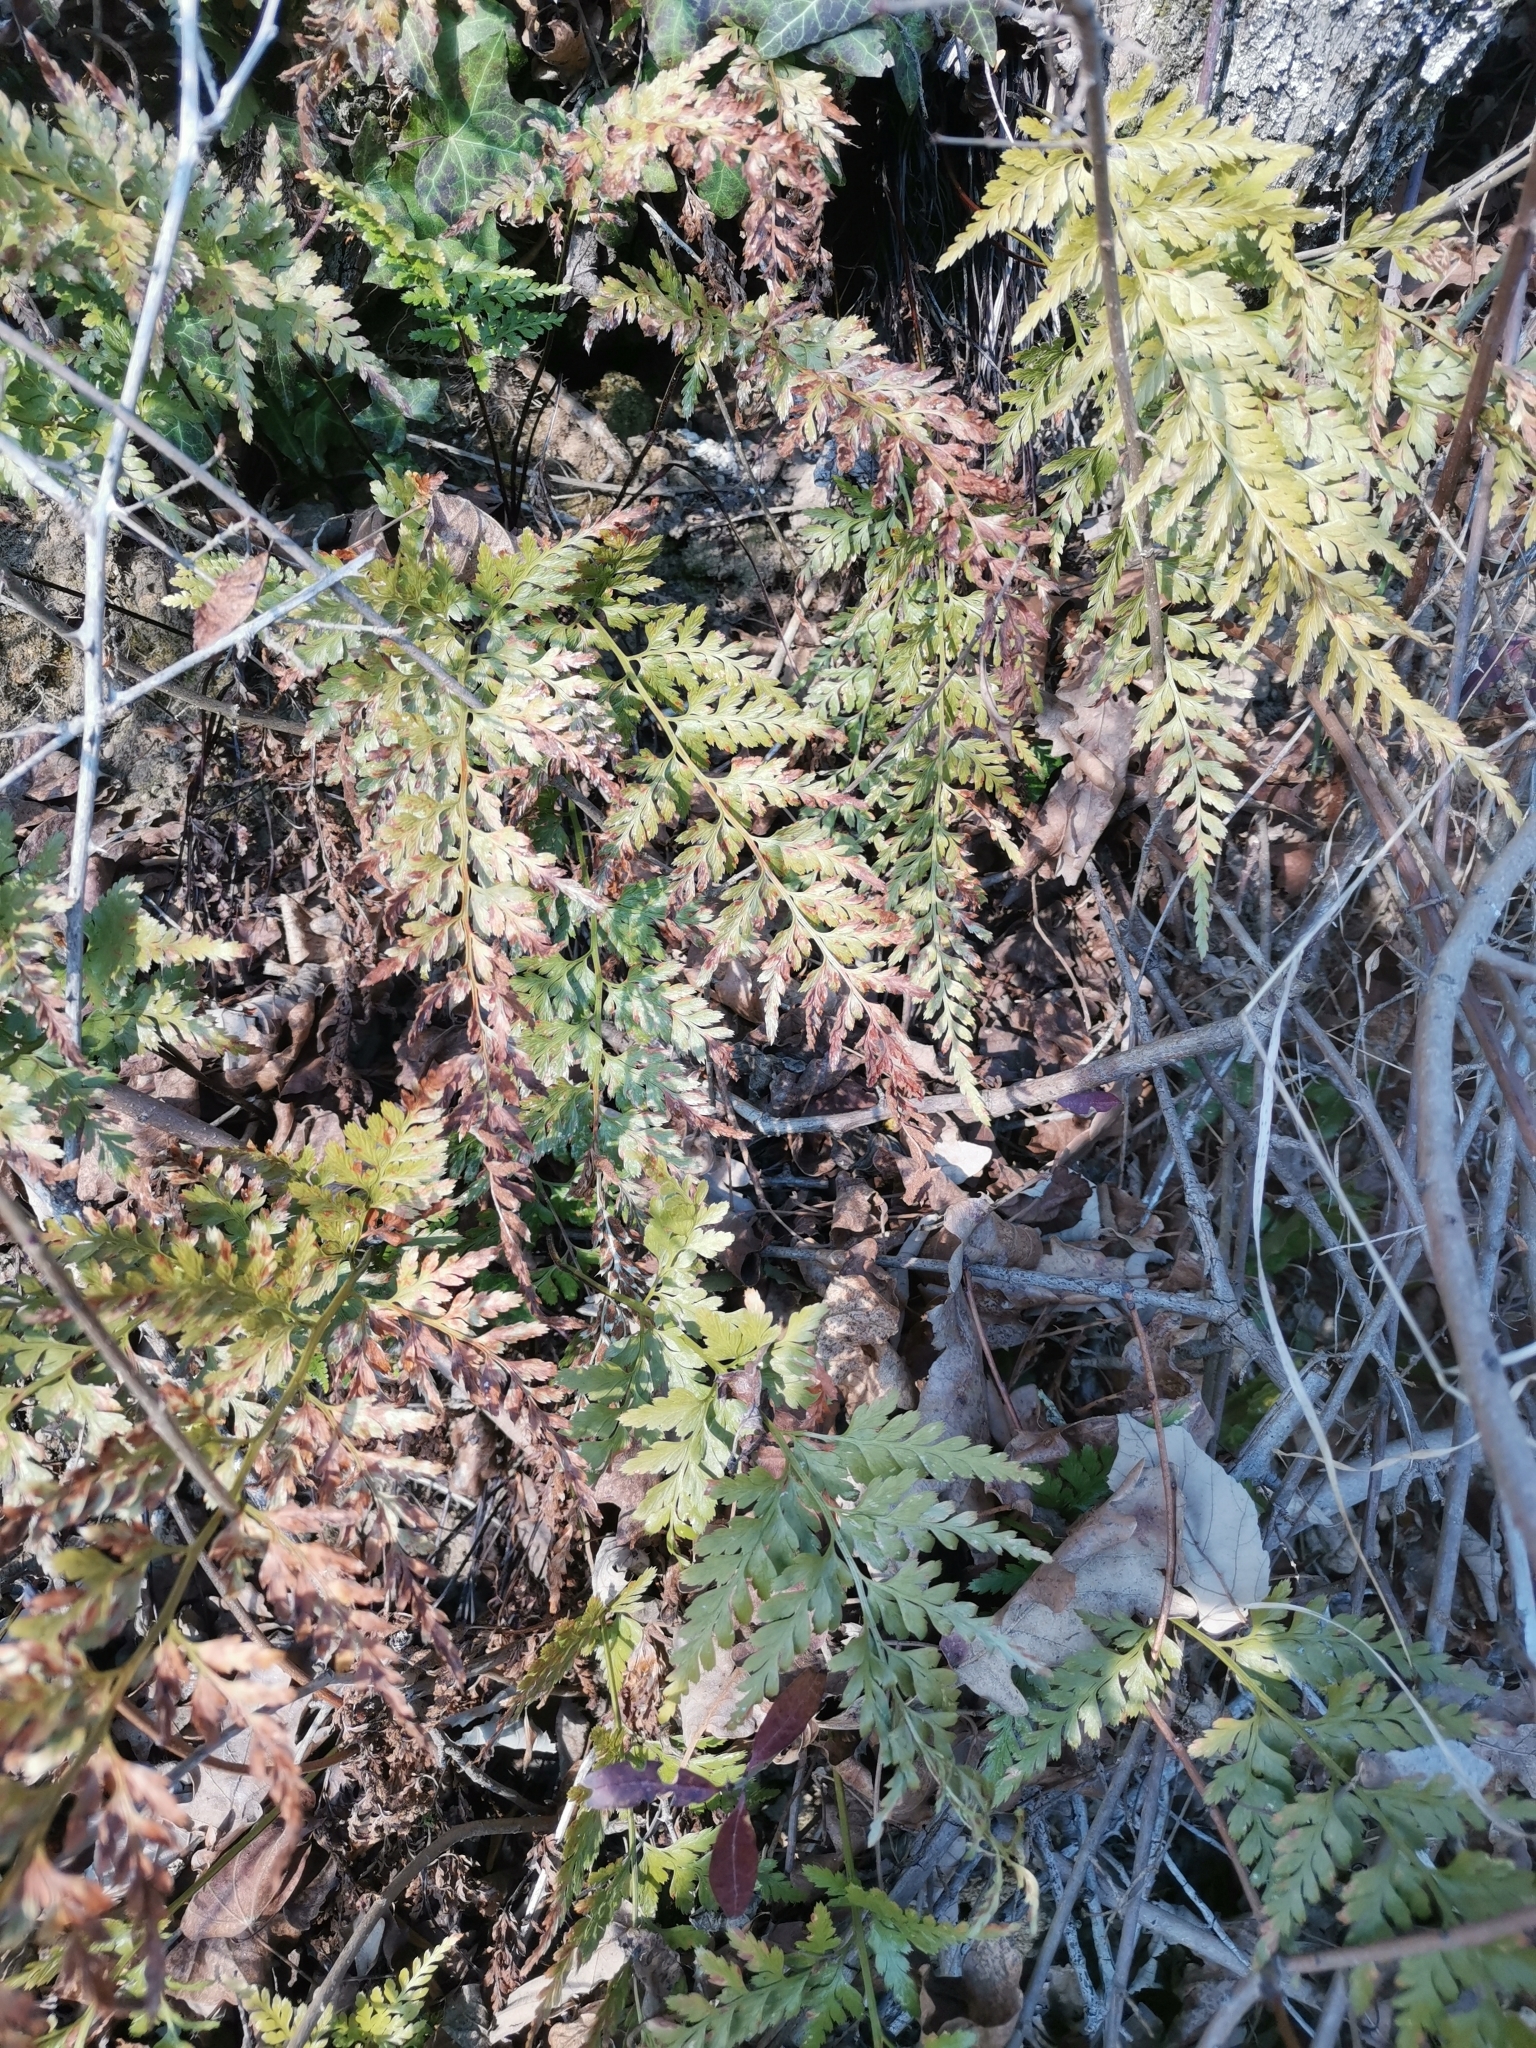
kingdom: Plantae
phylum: Tracheophyta
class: Polypodiopsida
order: Polypodiales
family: Aspleniaceae
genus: Asplenium
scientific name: Asplenium onopteris
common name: Irish spleenwort
